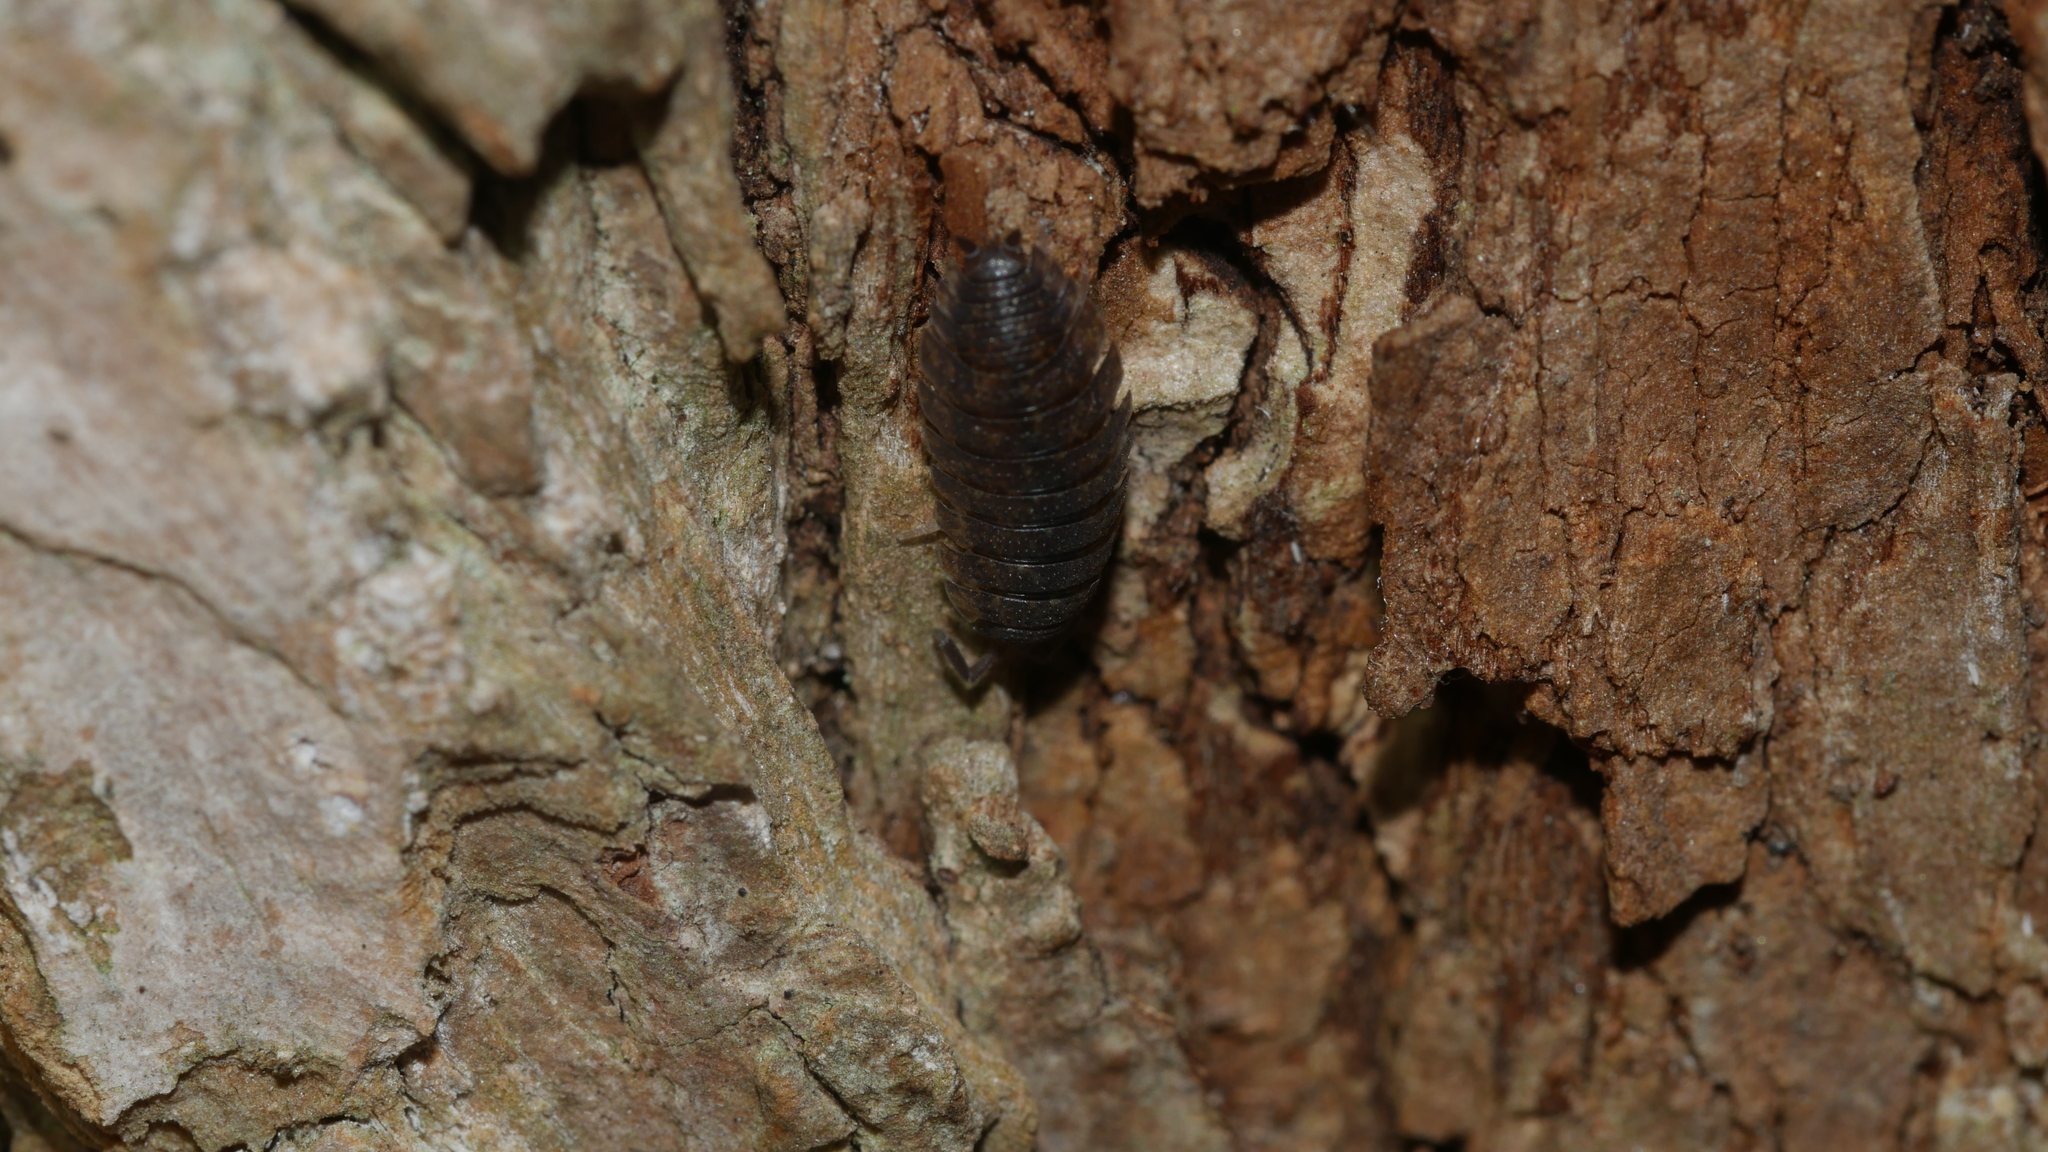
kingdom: Animalia
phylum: Arthropoda
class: Malacostraca
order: Isopoda
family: Porcellionidae
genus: Porcellio
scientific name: Porcellio scaber
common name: Common rough woodlouse
